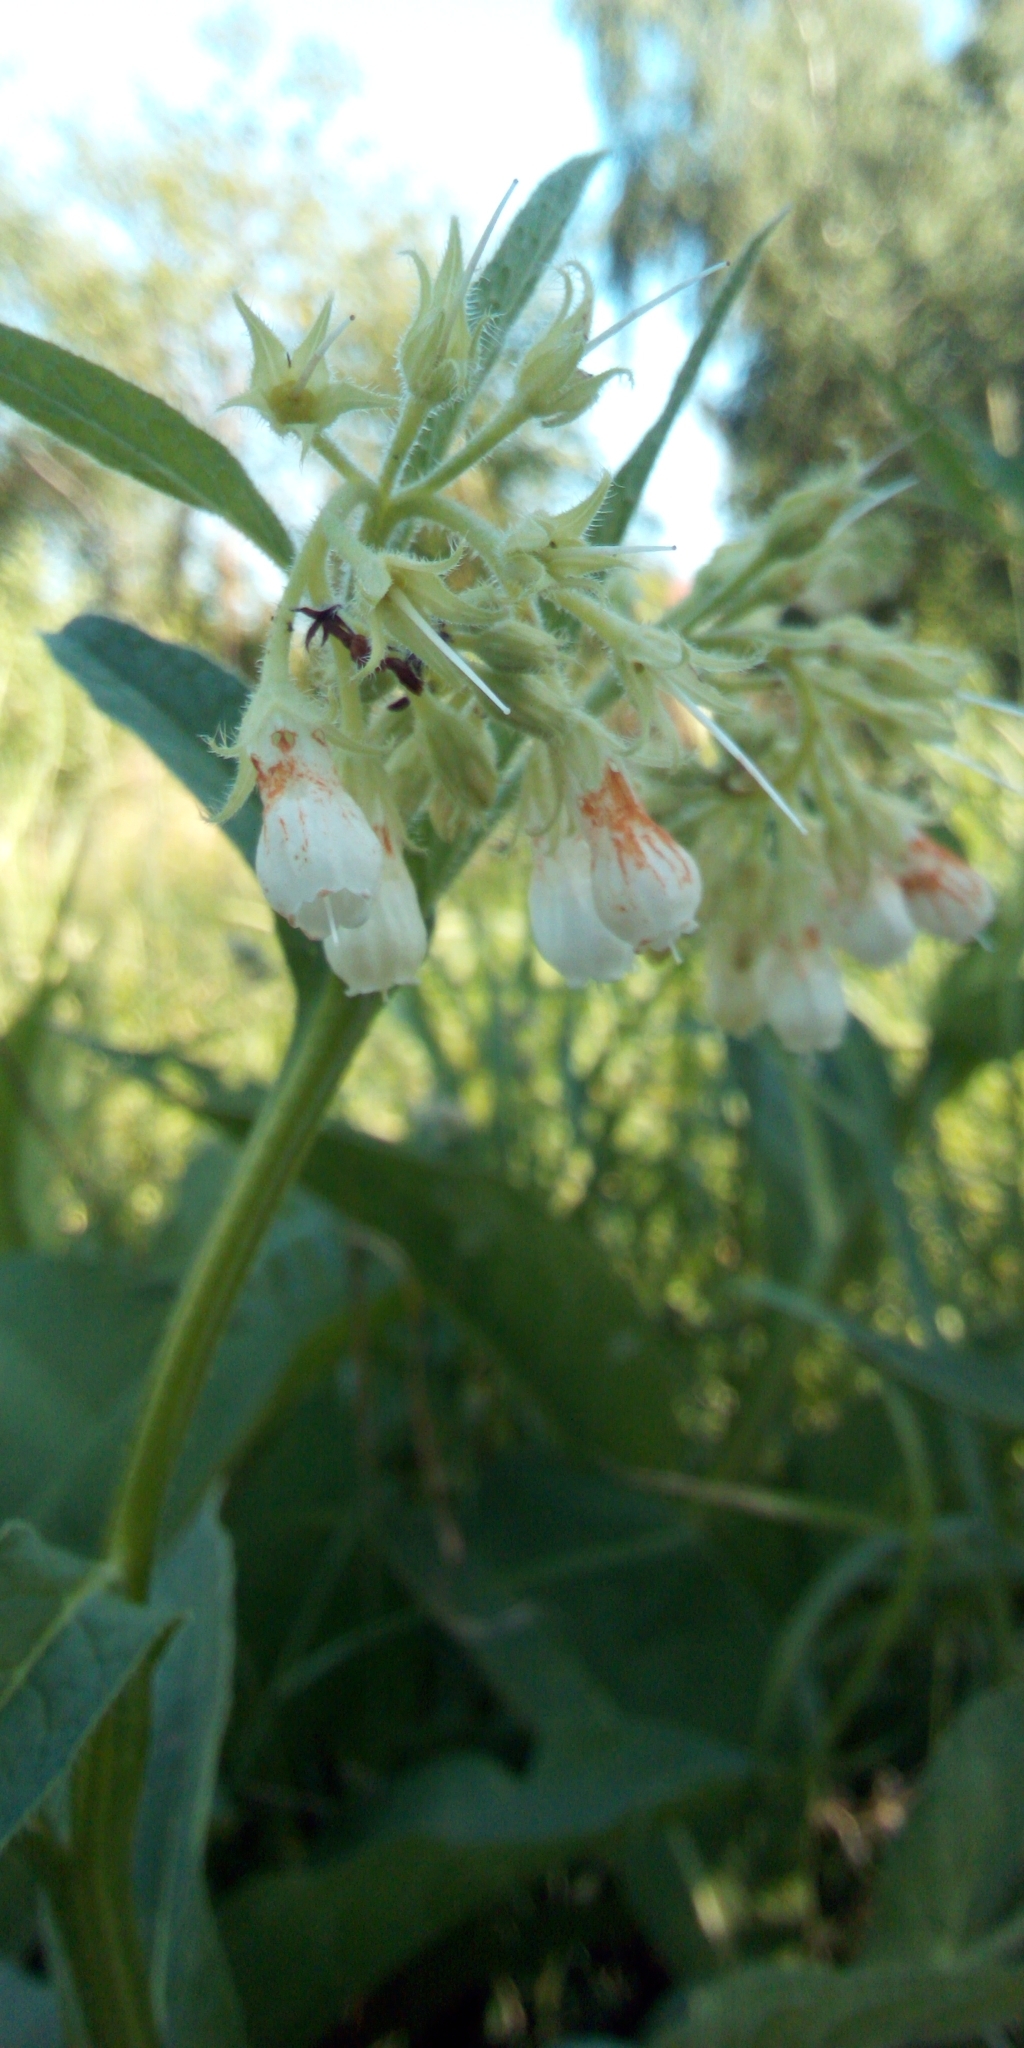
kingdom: Plantae
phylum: Tracheophyta
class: Magnoliopsida
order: Boraginales
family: Boraginaceae
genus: Symphytum
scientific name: Symphytum officinale
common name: Common comfrey
